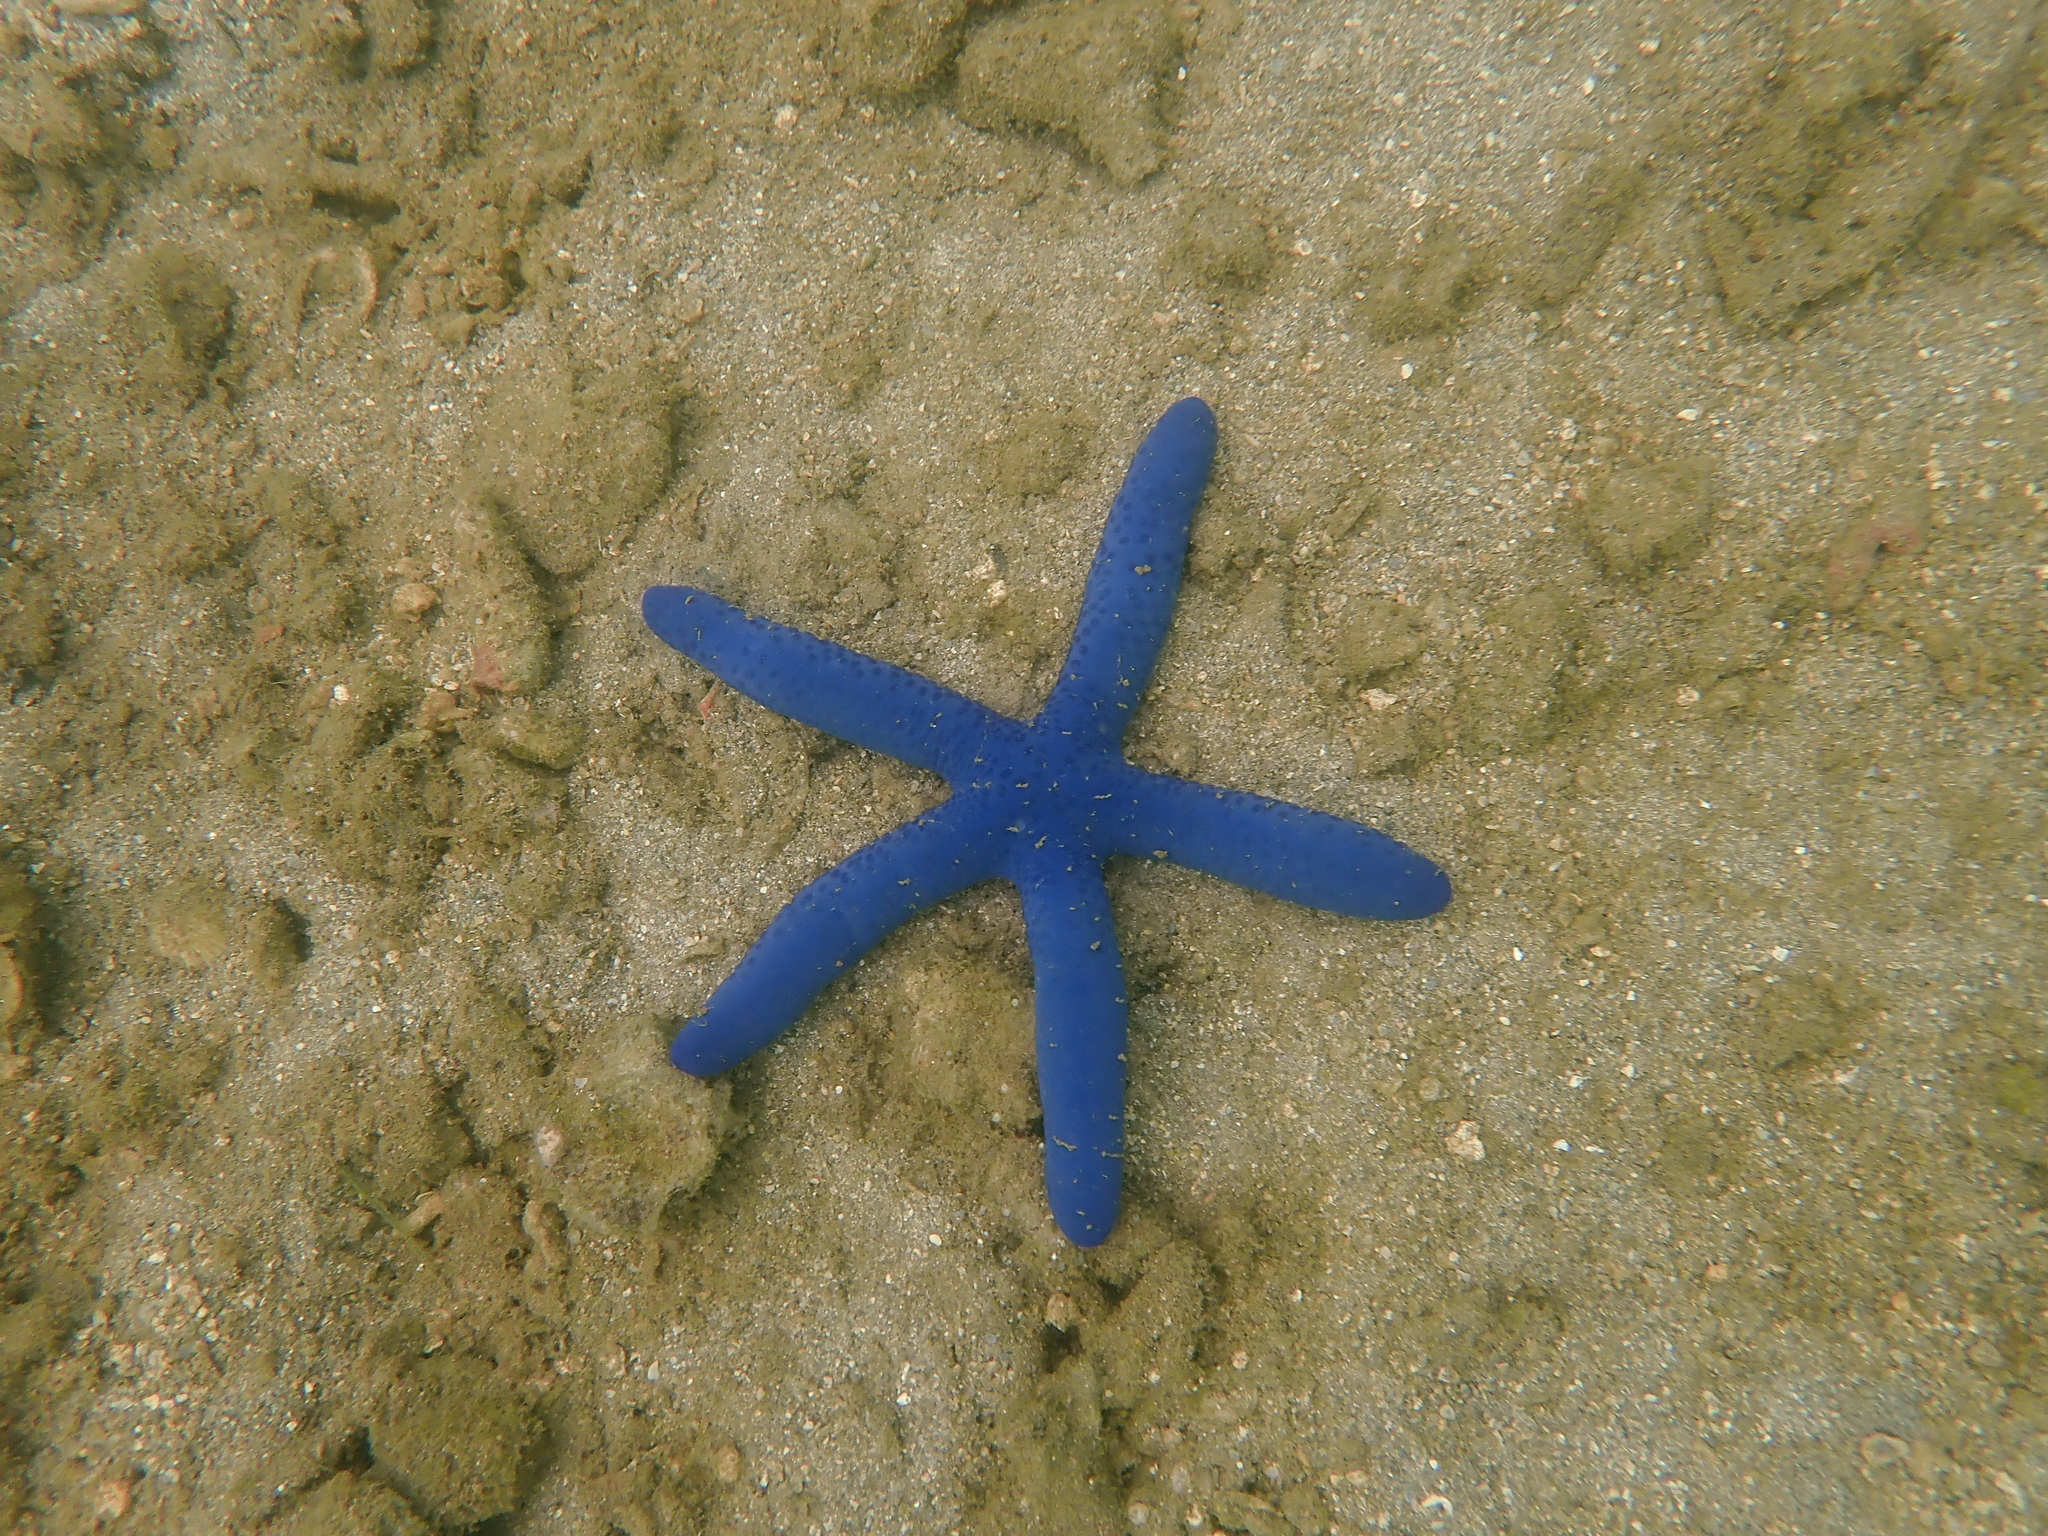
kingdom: Animalia
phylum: Echinodermata
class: Asteroidea
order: Valvatida
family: Ophidiasteridae
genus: Linckia
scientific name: Linckia laevigata
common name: Azure sea star
